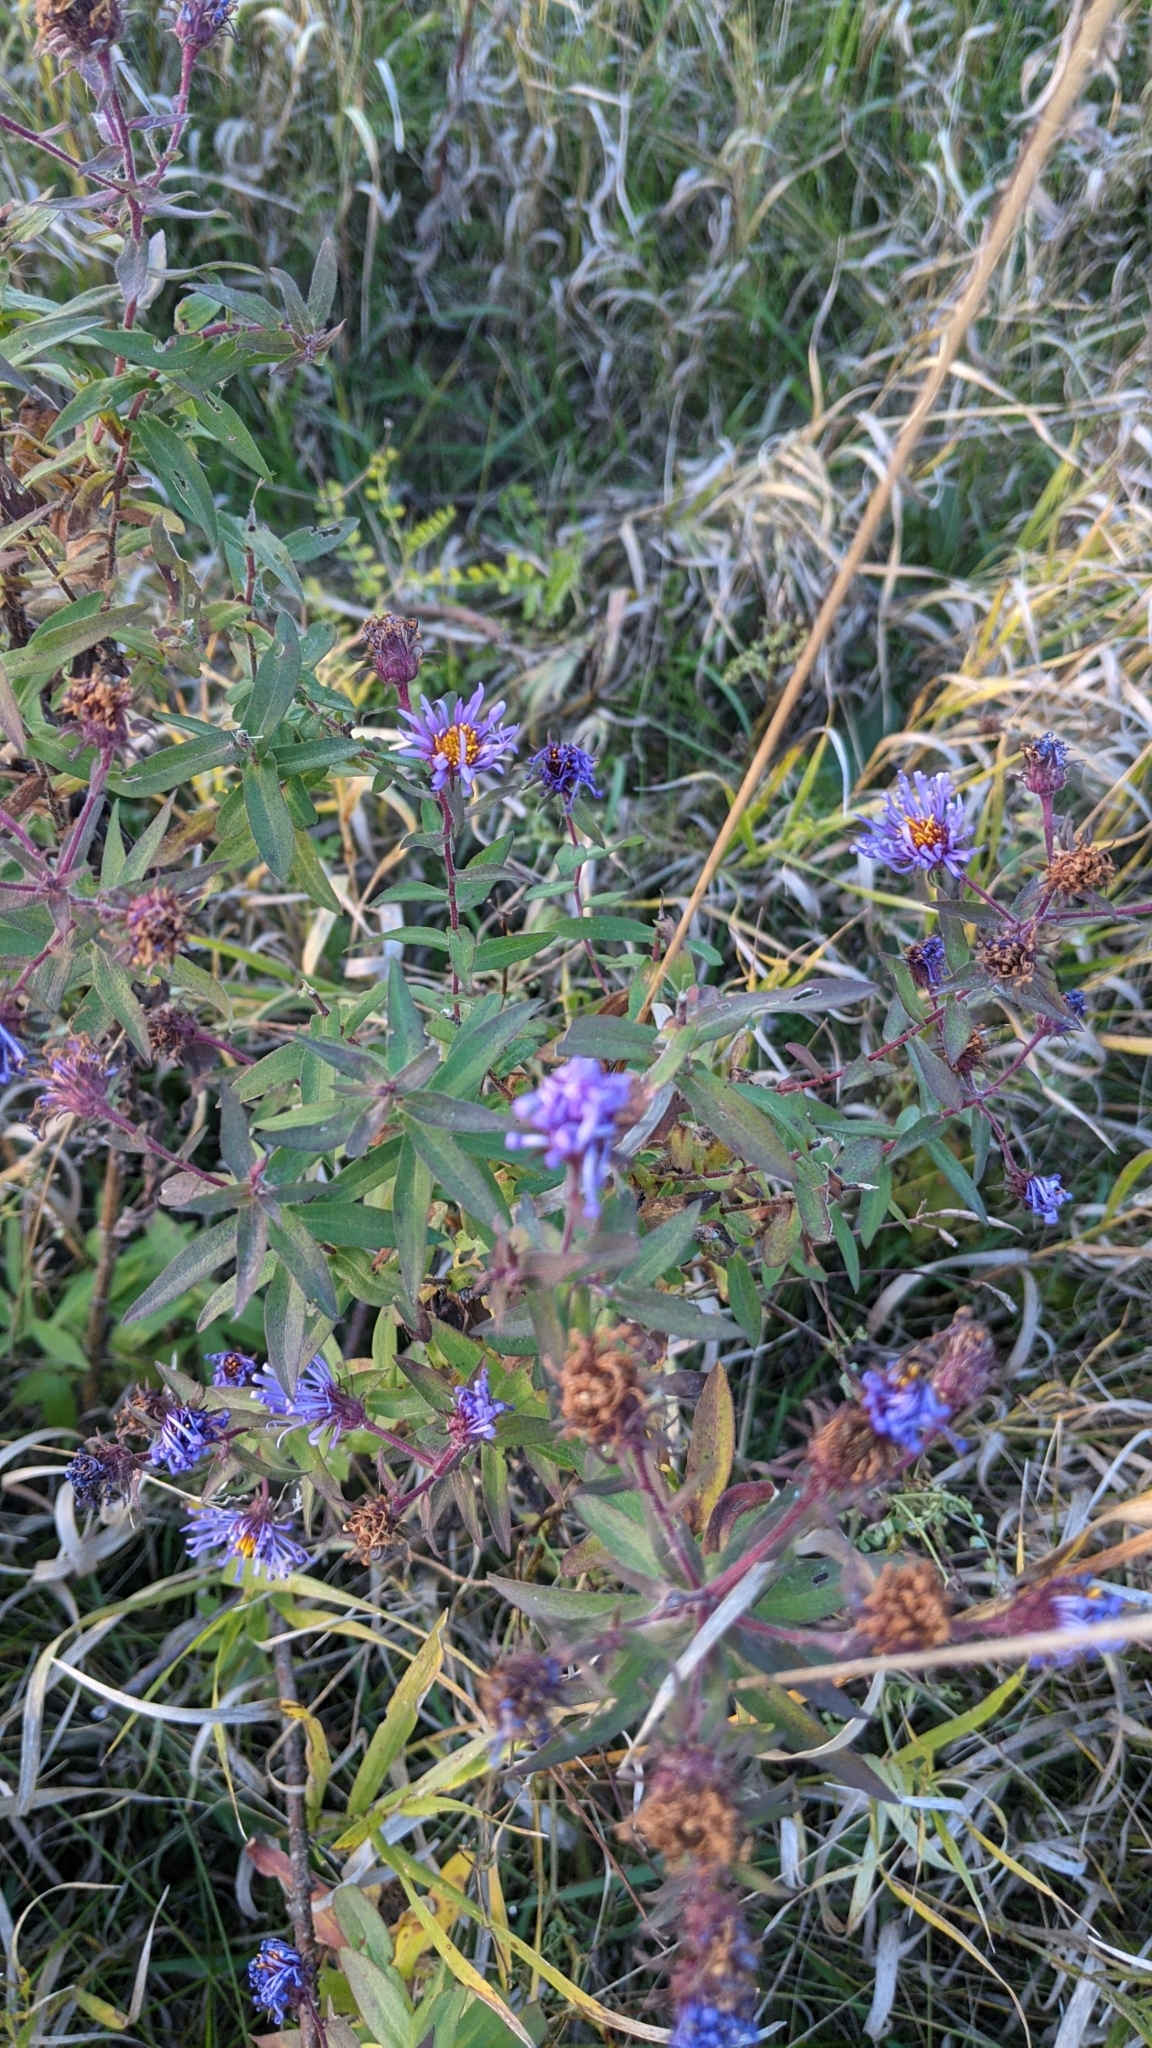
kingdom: Plantae
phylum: Tracheophyta
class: Magnoliopsida
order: Asterales
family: Asteraceae
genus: Symphyotrichum
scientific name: Symphyotrichum novae-angliae
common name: Michaelmas daisy
